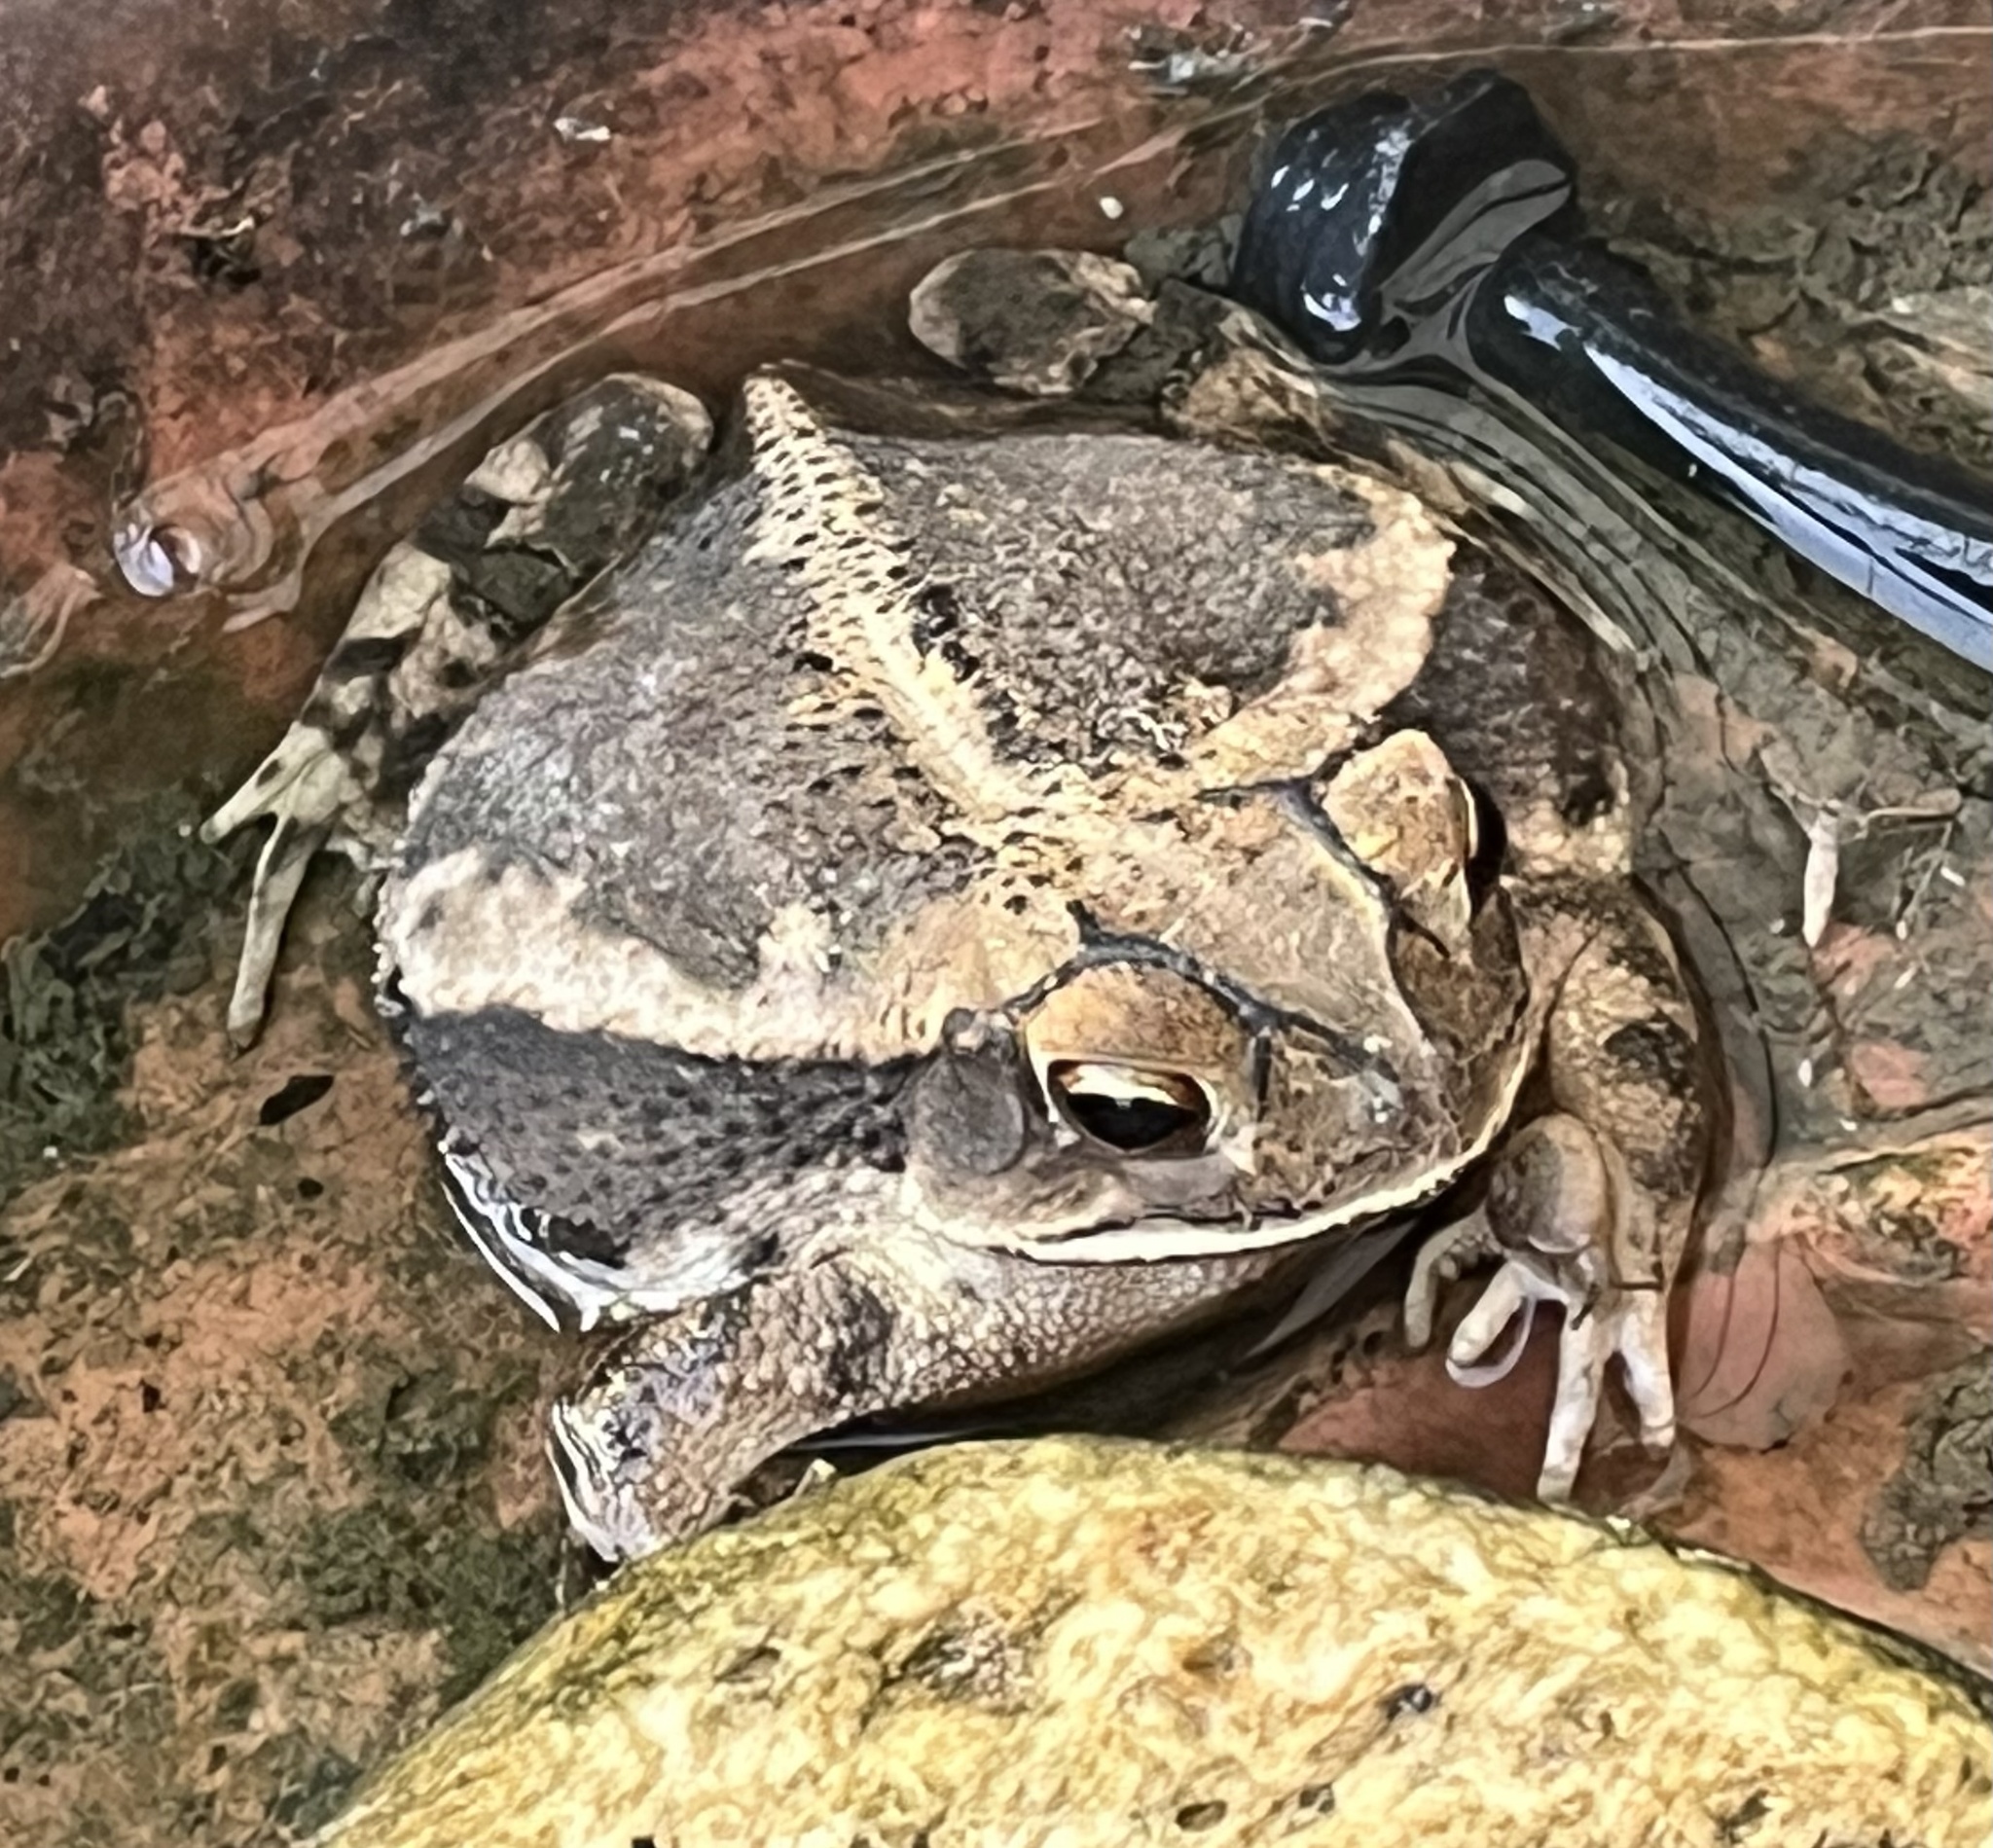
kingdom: Animalia
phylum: Chordata
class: Amphibia
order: Anura
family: Bufonidae
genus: Incilius
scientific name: Incilius nebulifer
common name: Gulf coast toad
